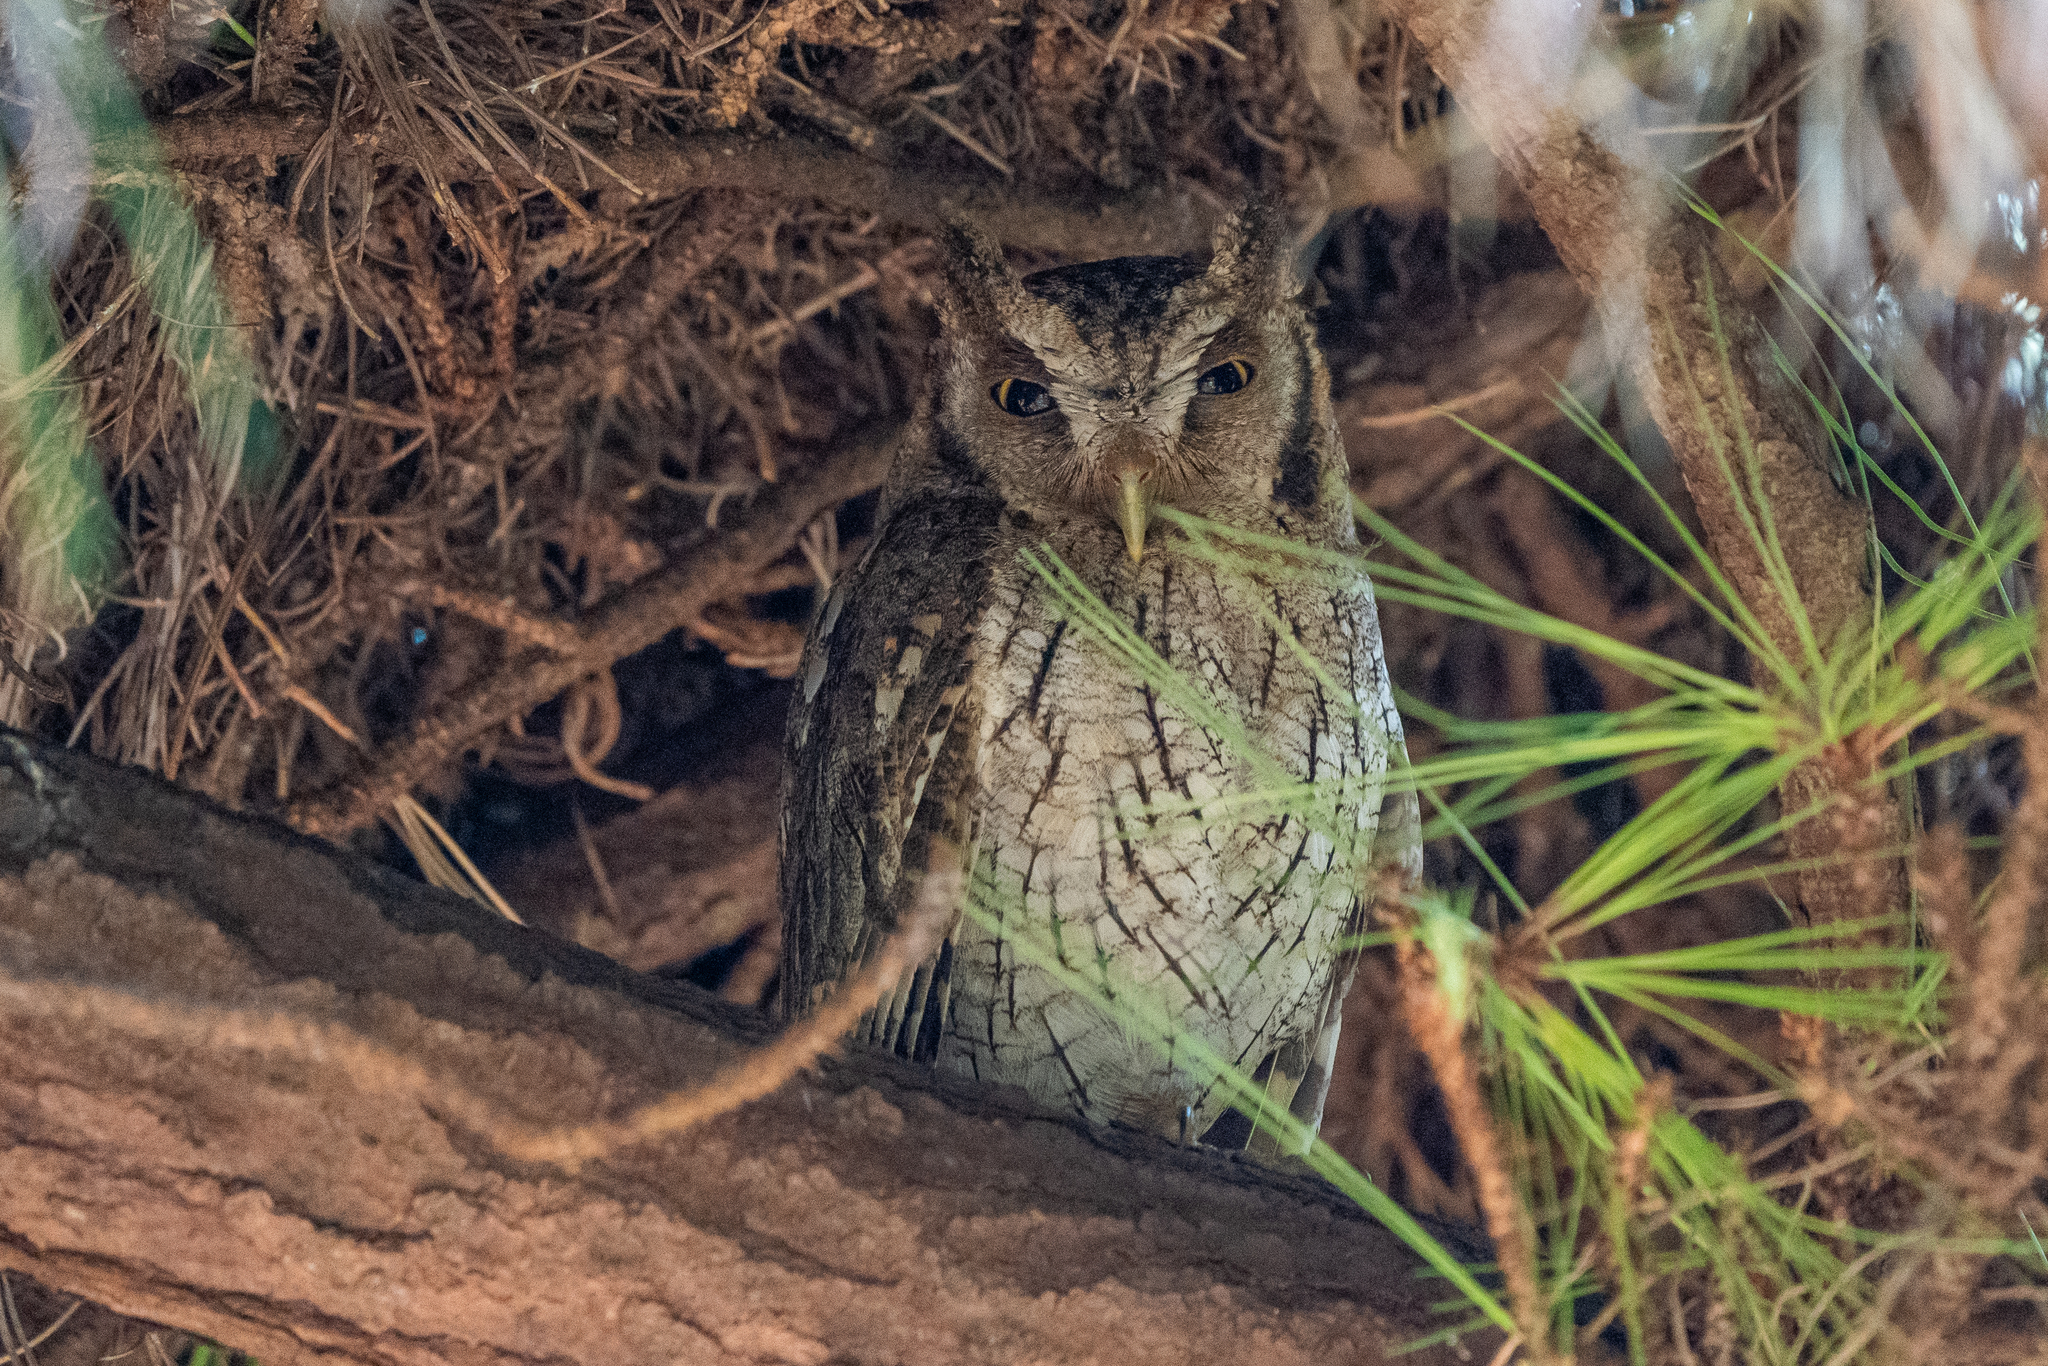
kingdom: Animalia
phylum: Chordata
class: Aves
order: Strigiformes
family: Strigidae
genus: Megascops
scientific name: Megascops choliba
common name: Tropical screech-owl
